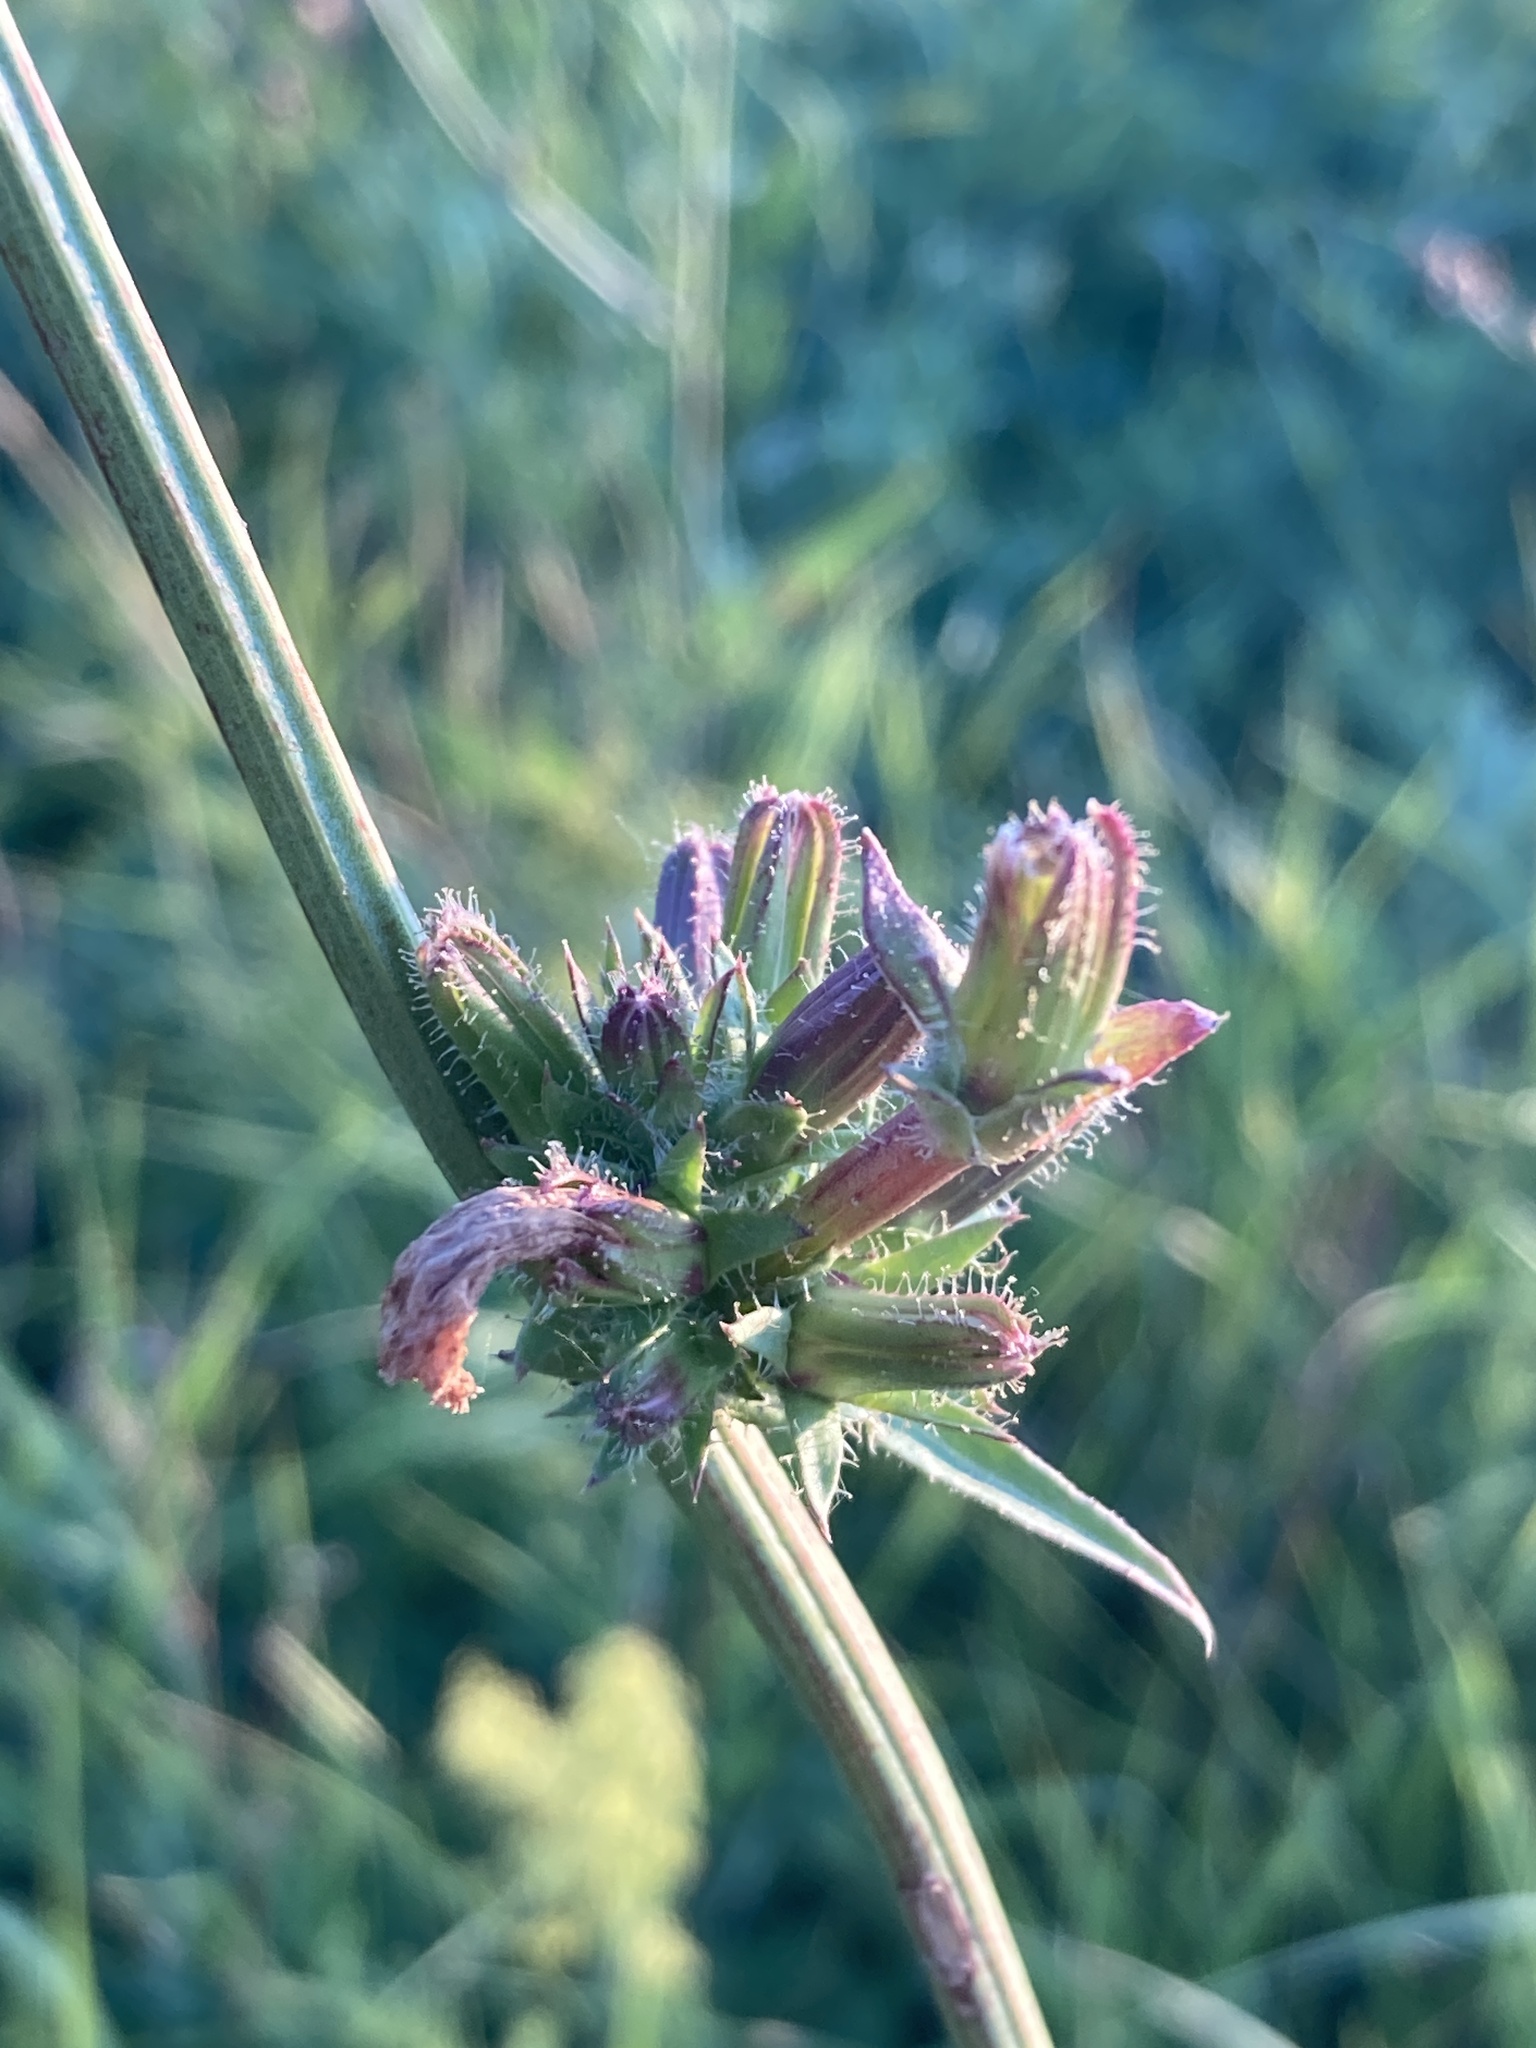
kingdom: Plantae
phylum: Tracheophyta
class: Magnoliopsida
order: Asterales
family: Asteraceae
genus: Cichorium
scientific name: Cichorium intybus
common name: Chicory
